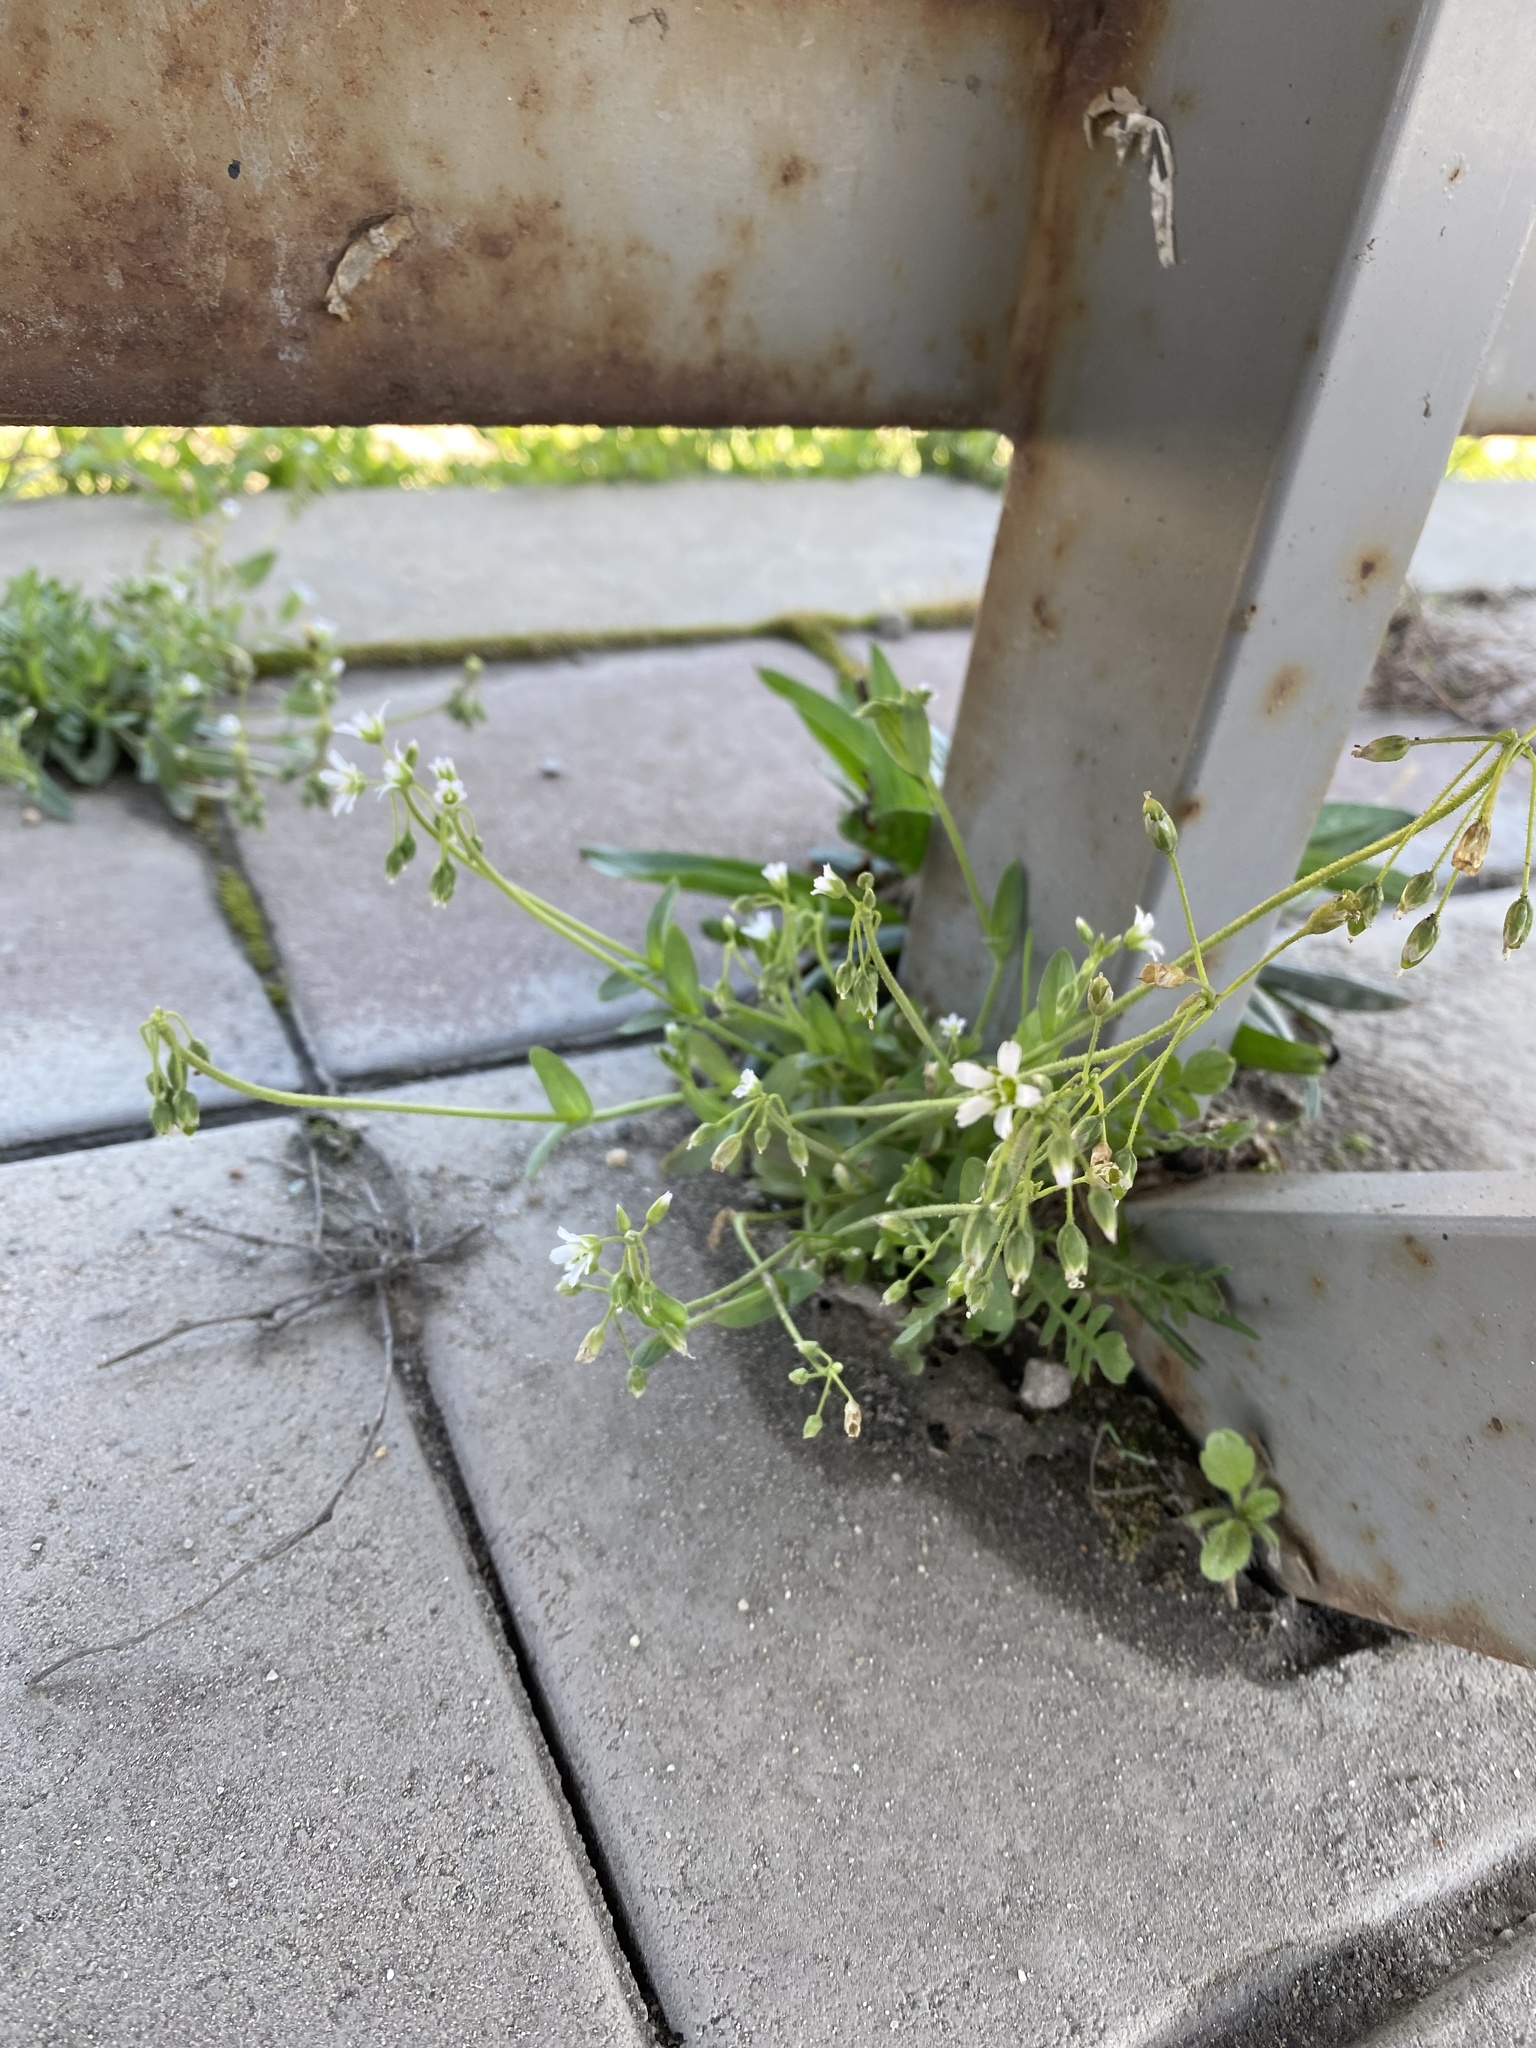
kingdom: Plantae
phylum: Tracheophyta
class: Magnoliopsida
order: Caryophyllales
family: Caryophyllaceae
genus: Holosteum
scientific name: Holosteum umbellatum
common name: Jagged chickweed
